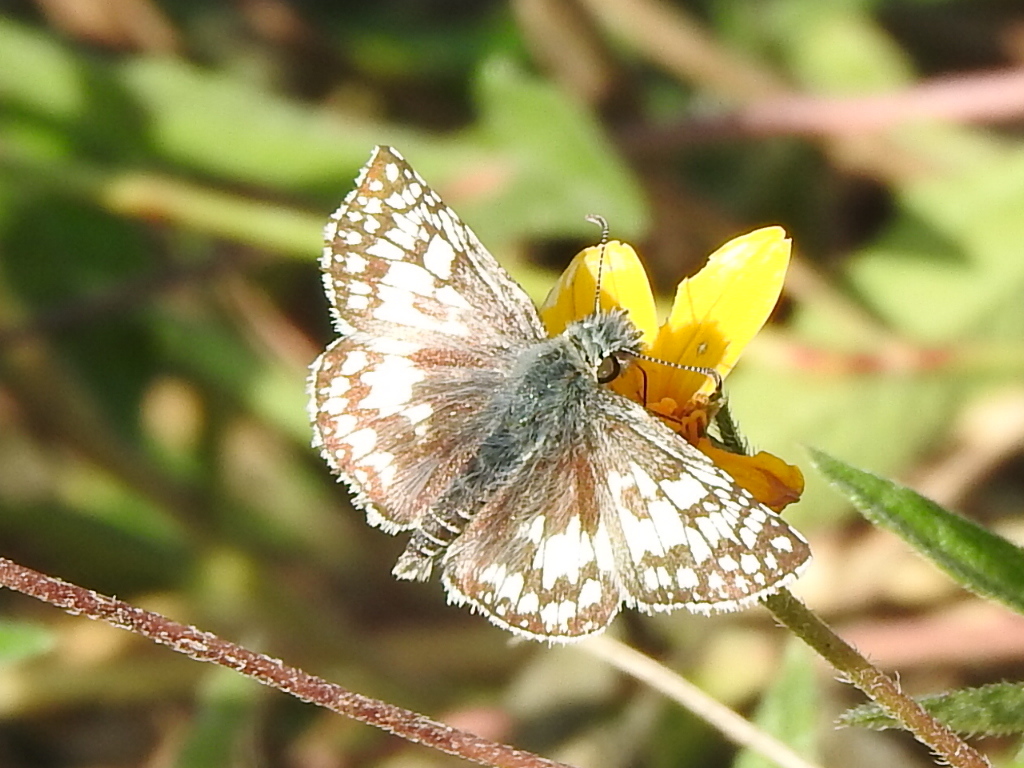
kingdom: Animalia
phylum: Arthropoda
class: Insecta
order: Lepidoptera
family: Hesperiidae
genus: Burnsius
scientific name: Burnsius
